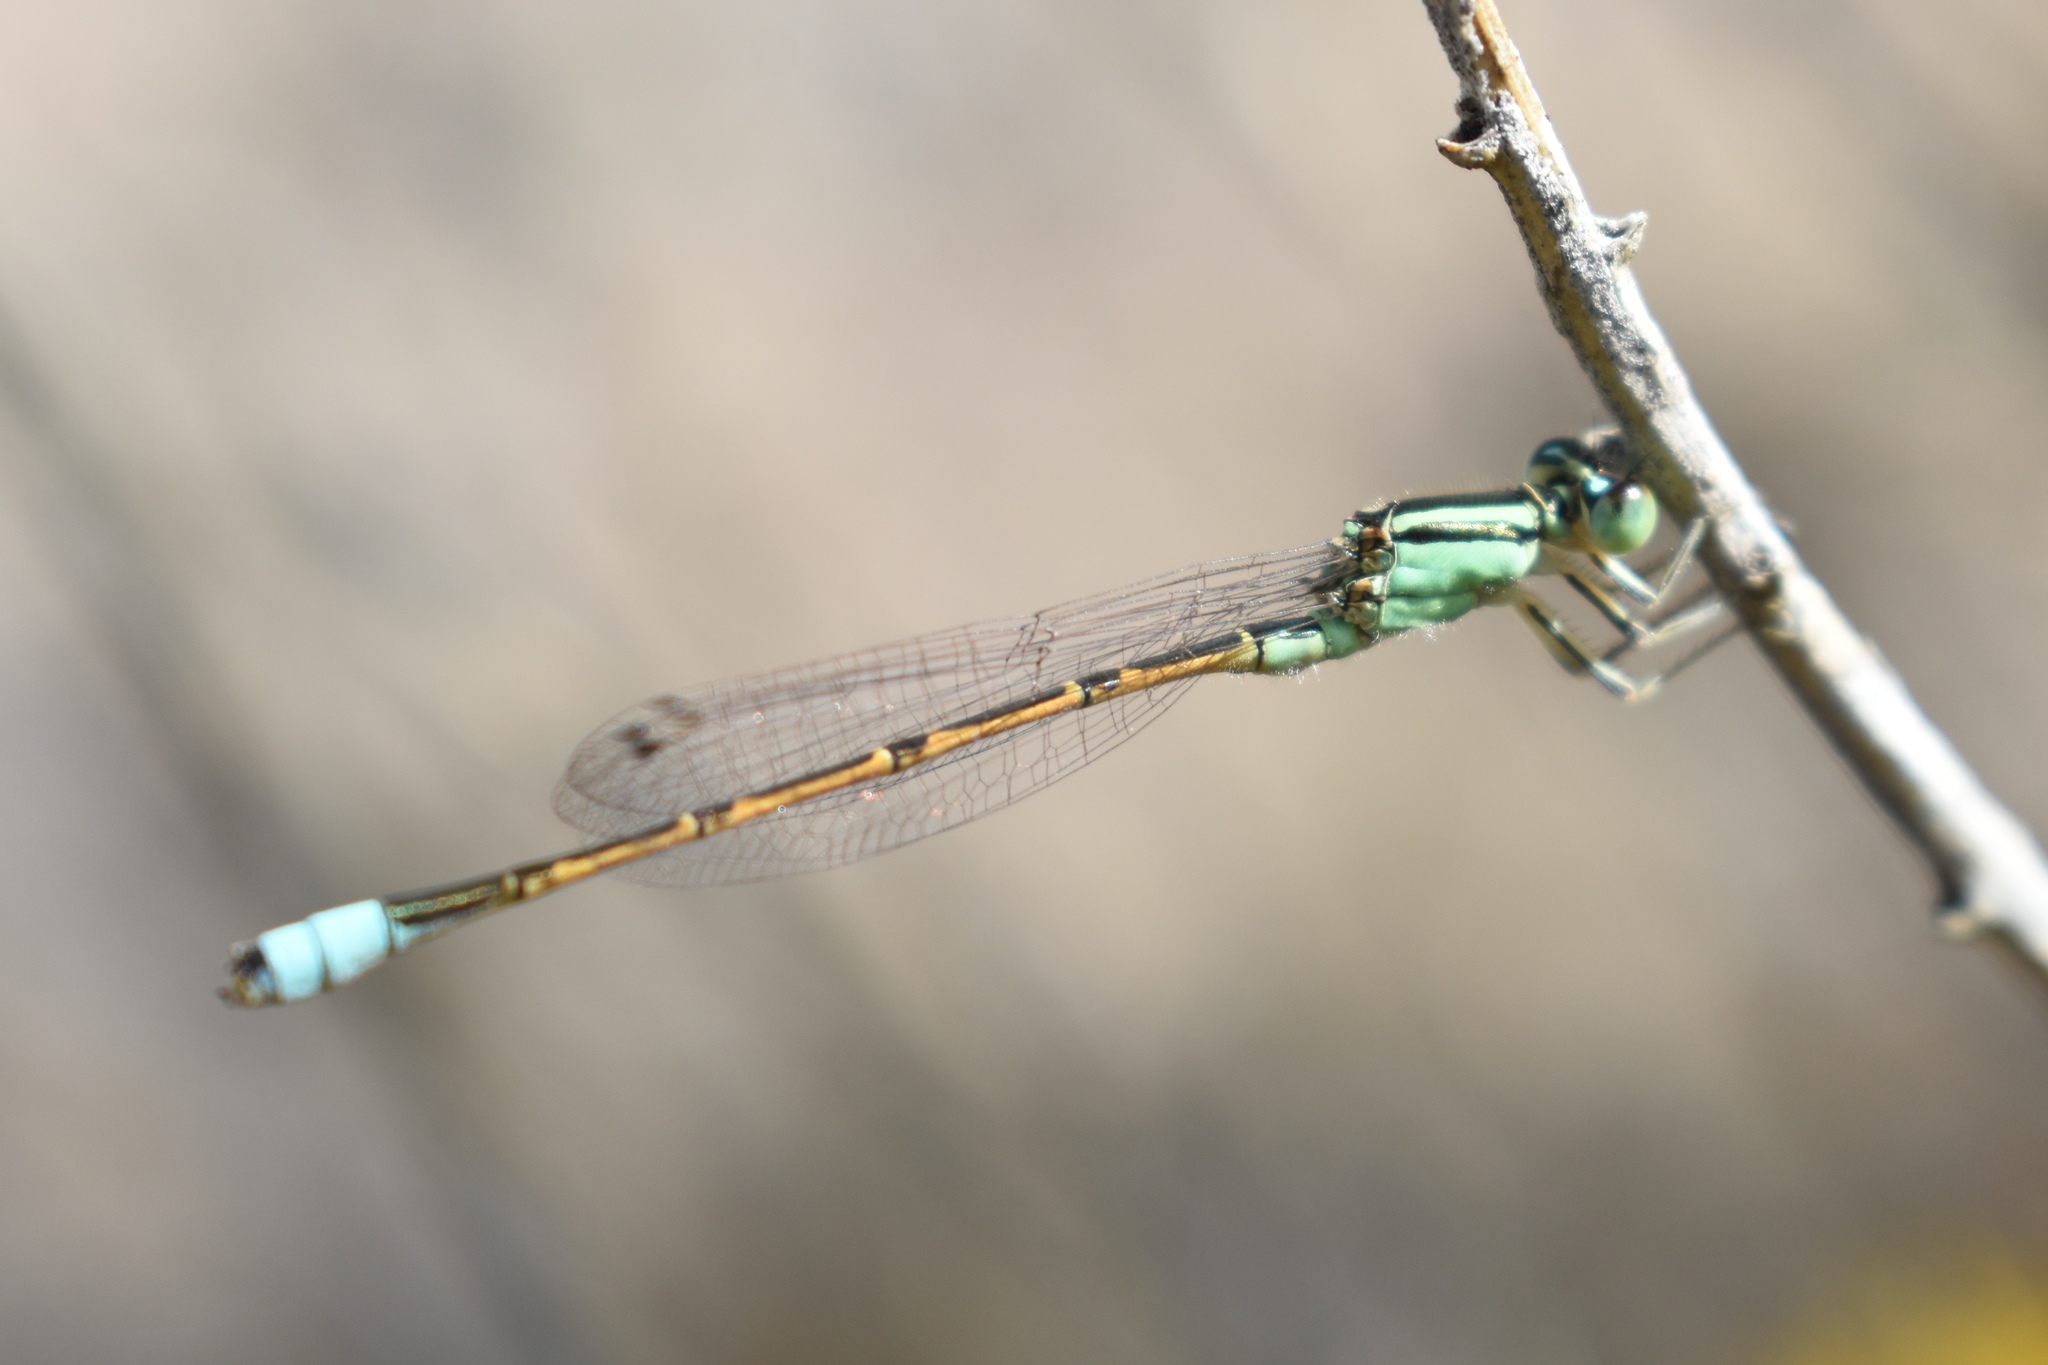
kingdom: Animalia
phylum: Arthropoda
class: Insecta
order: Odonata
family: Coenagrionidae
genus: Ischnura
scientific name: Ischnura barberi
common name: Desert forktail
